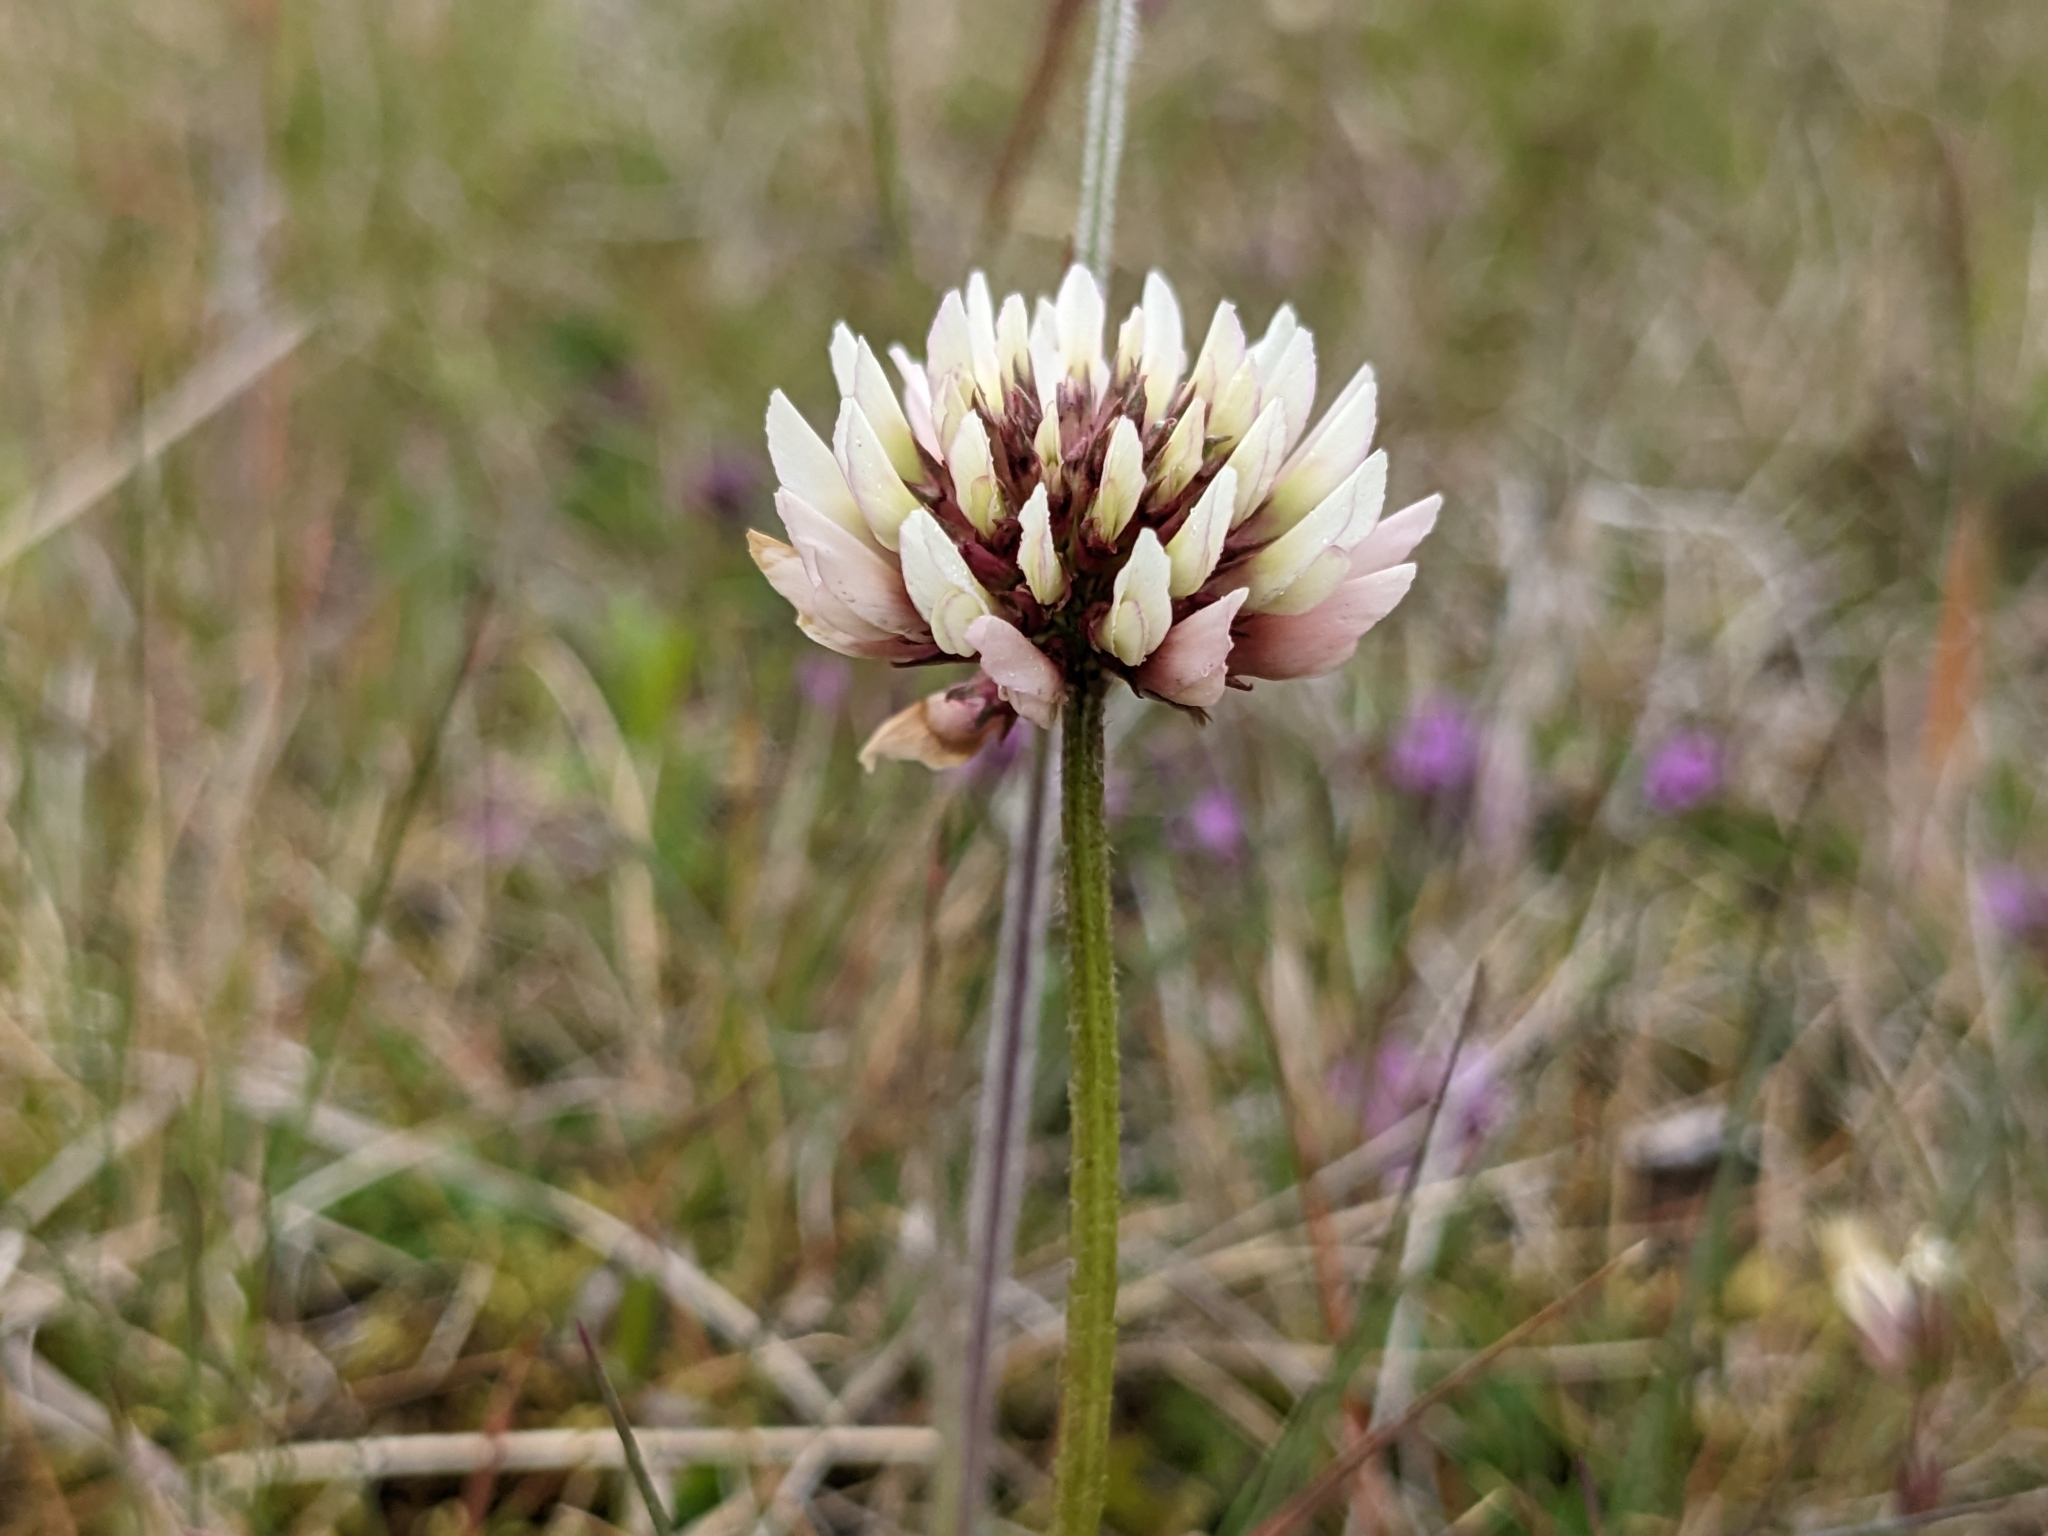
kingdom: Plantae
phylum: Tracheophyta
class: Magnoliopsida
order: Fabales
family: Fabaceae
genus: Trifolium
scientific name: Trifolium repens
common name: White clover
